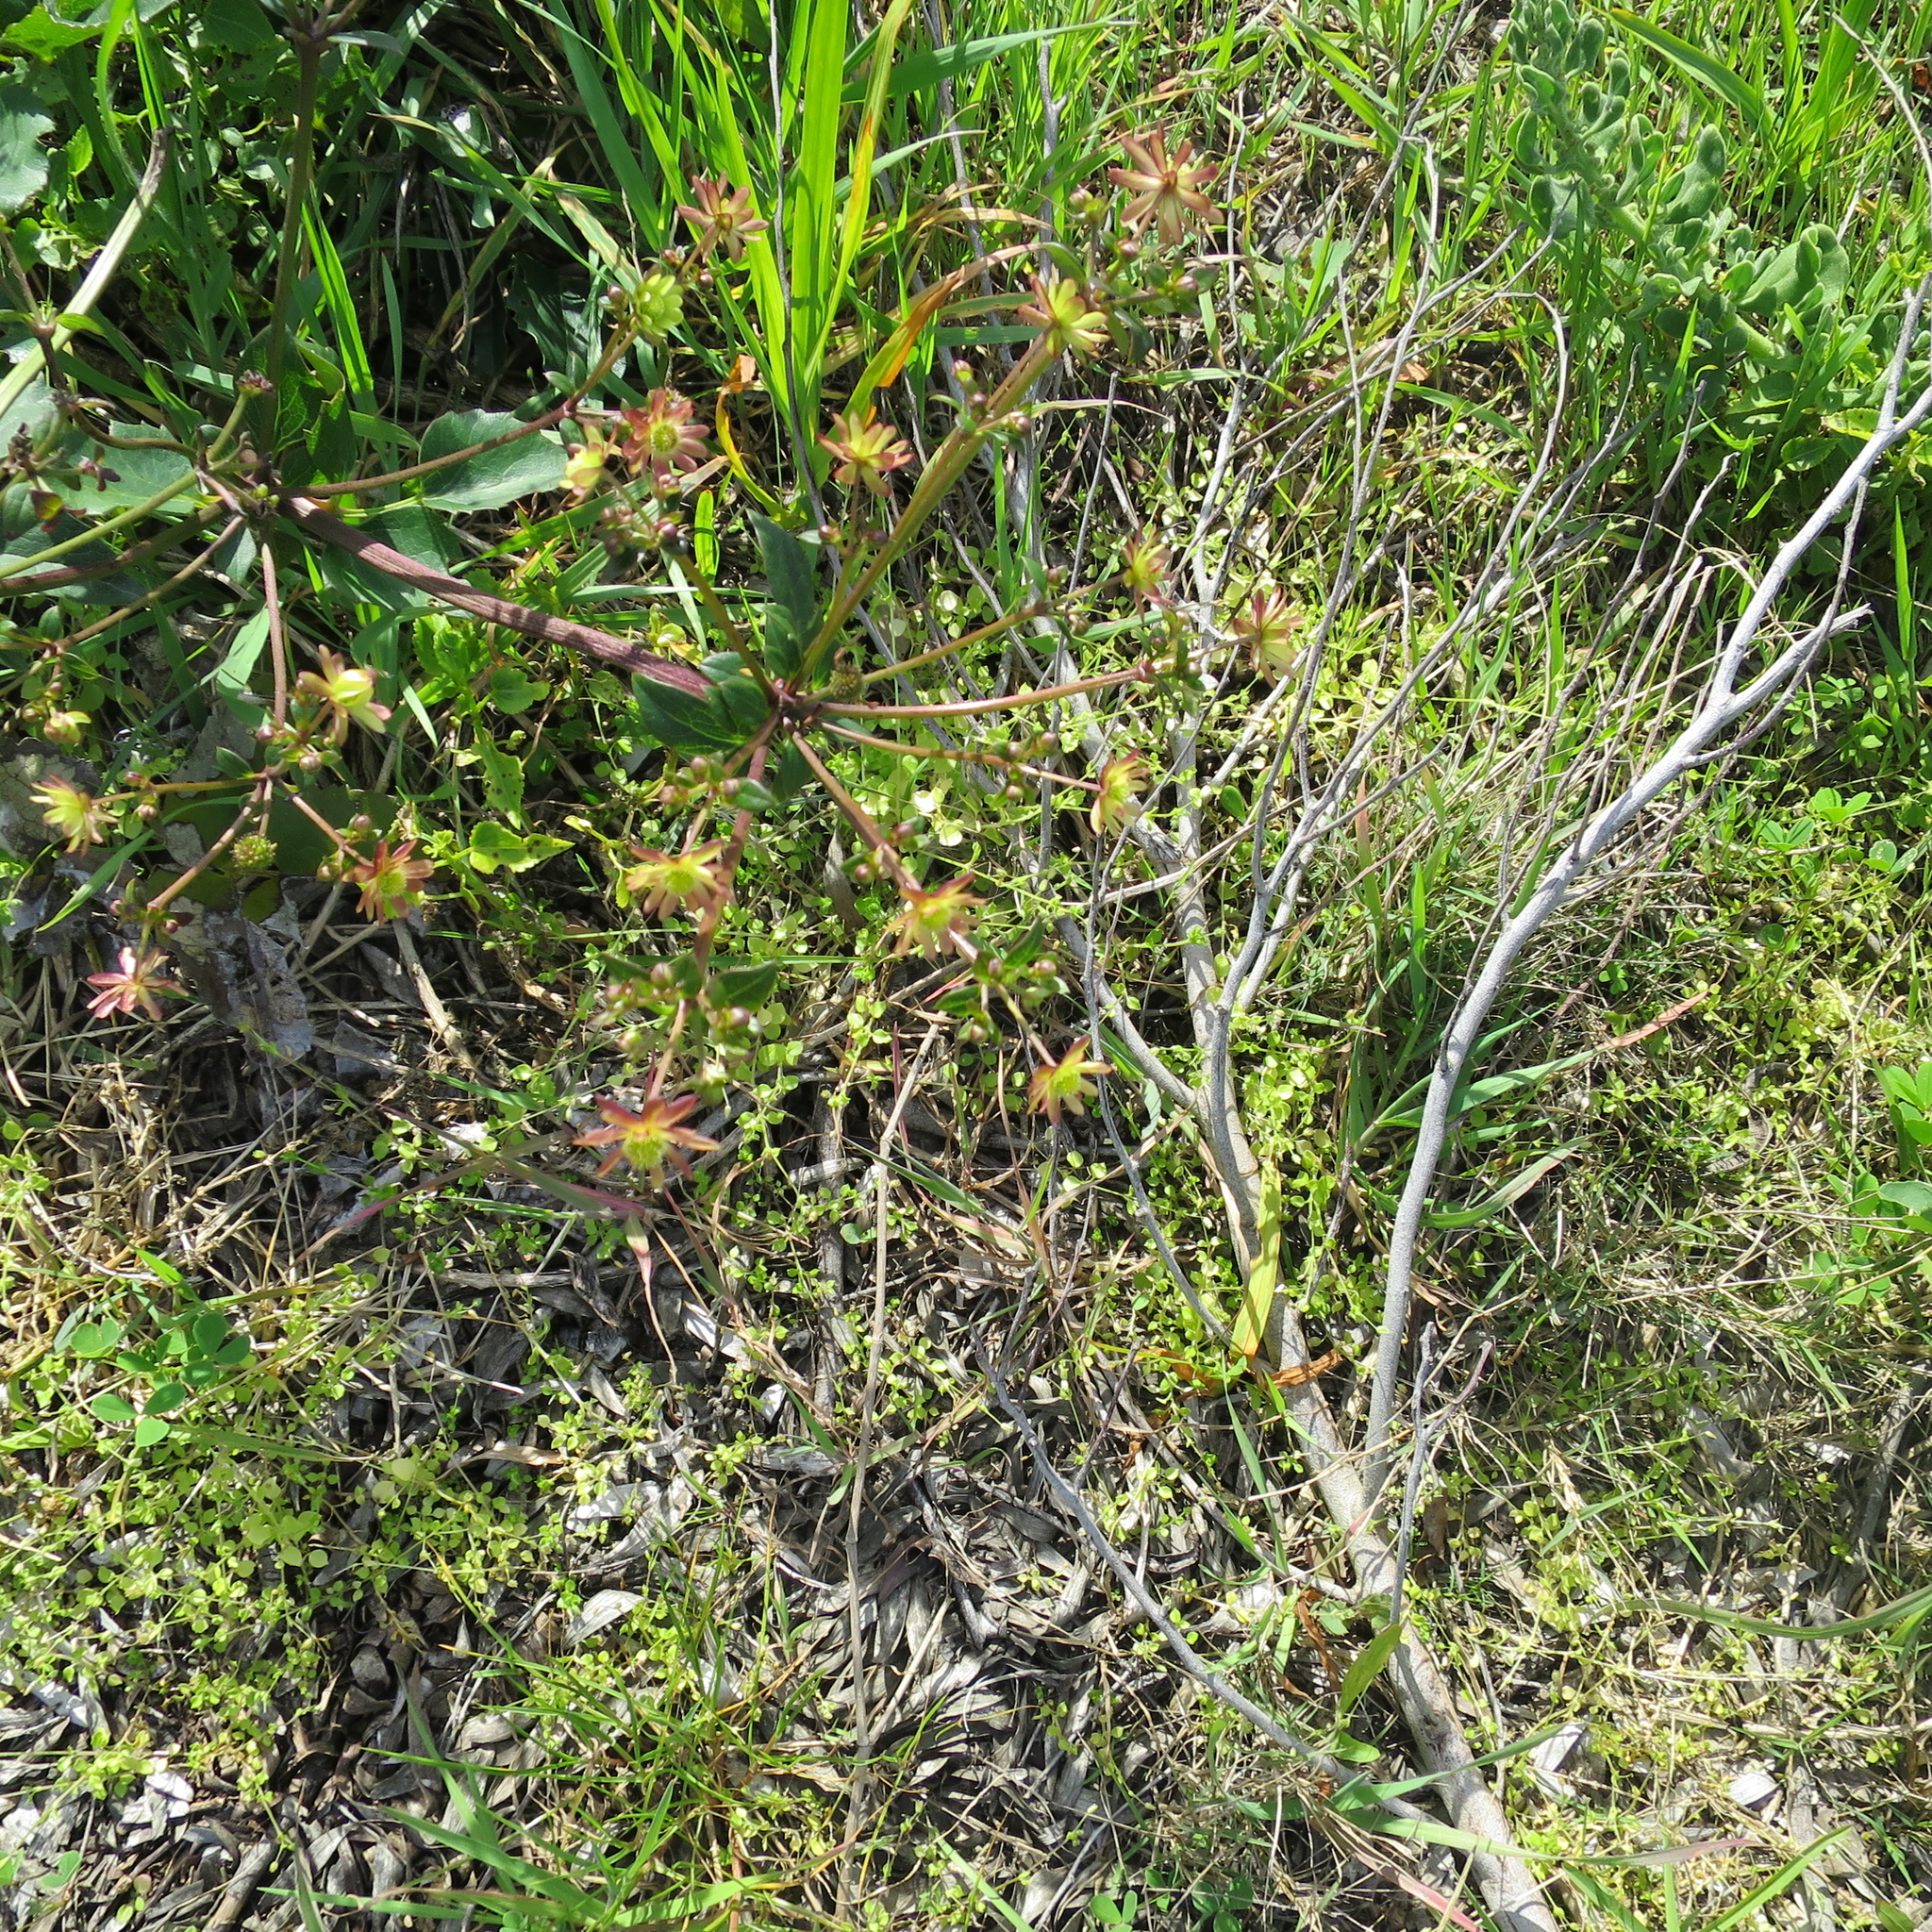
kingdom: Plantae
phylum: Tracheophyta
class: Magnoliopsida
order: Ranunculales
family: Ranunculaceae
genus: Knowltonia
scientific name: Knowltonia vesicatoria
